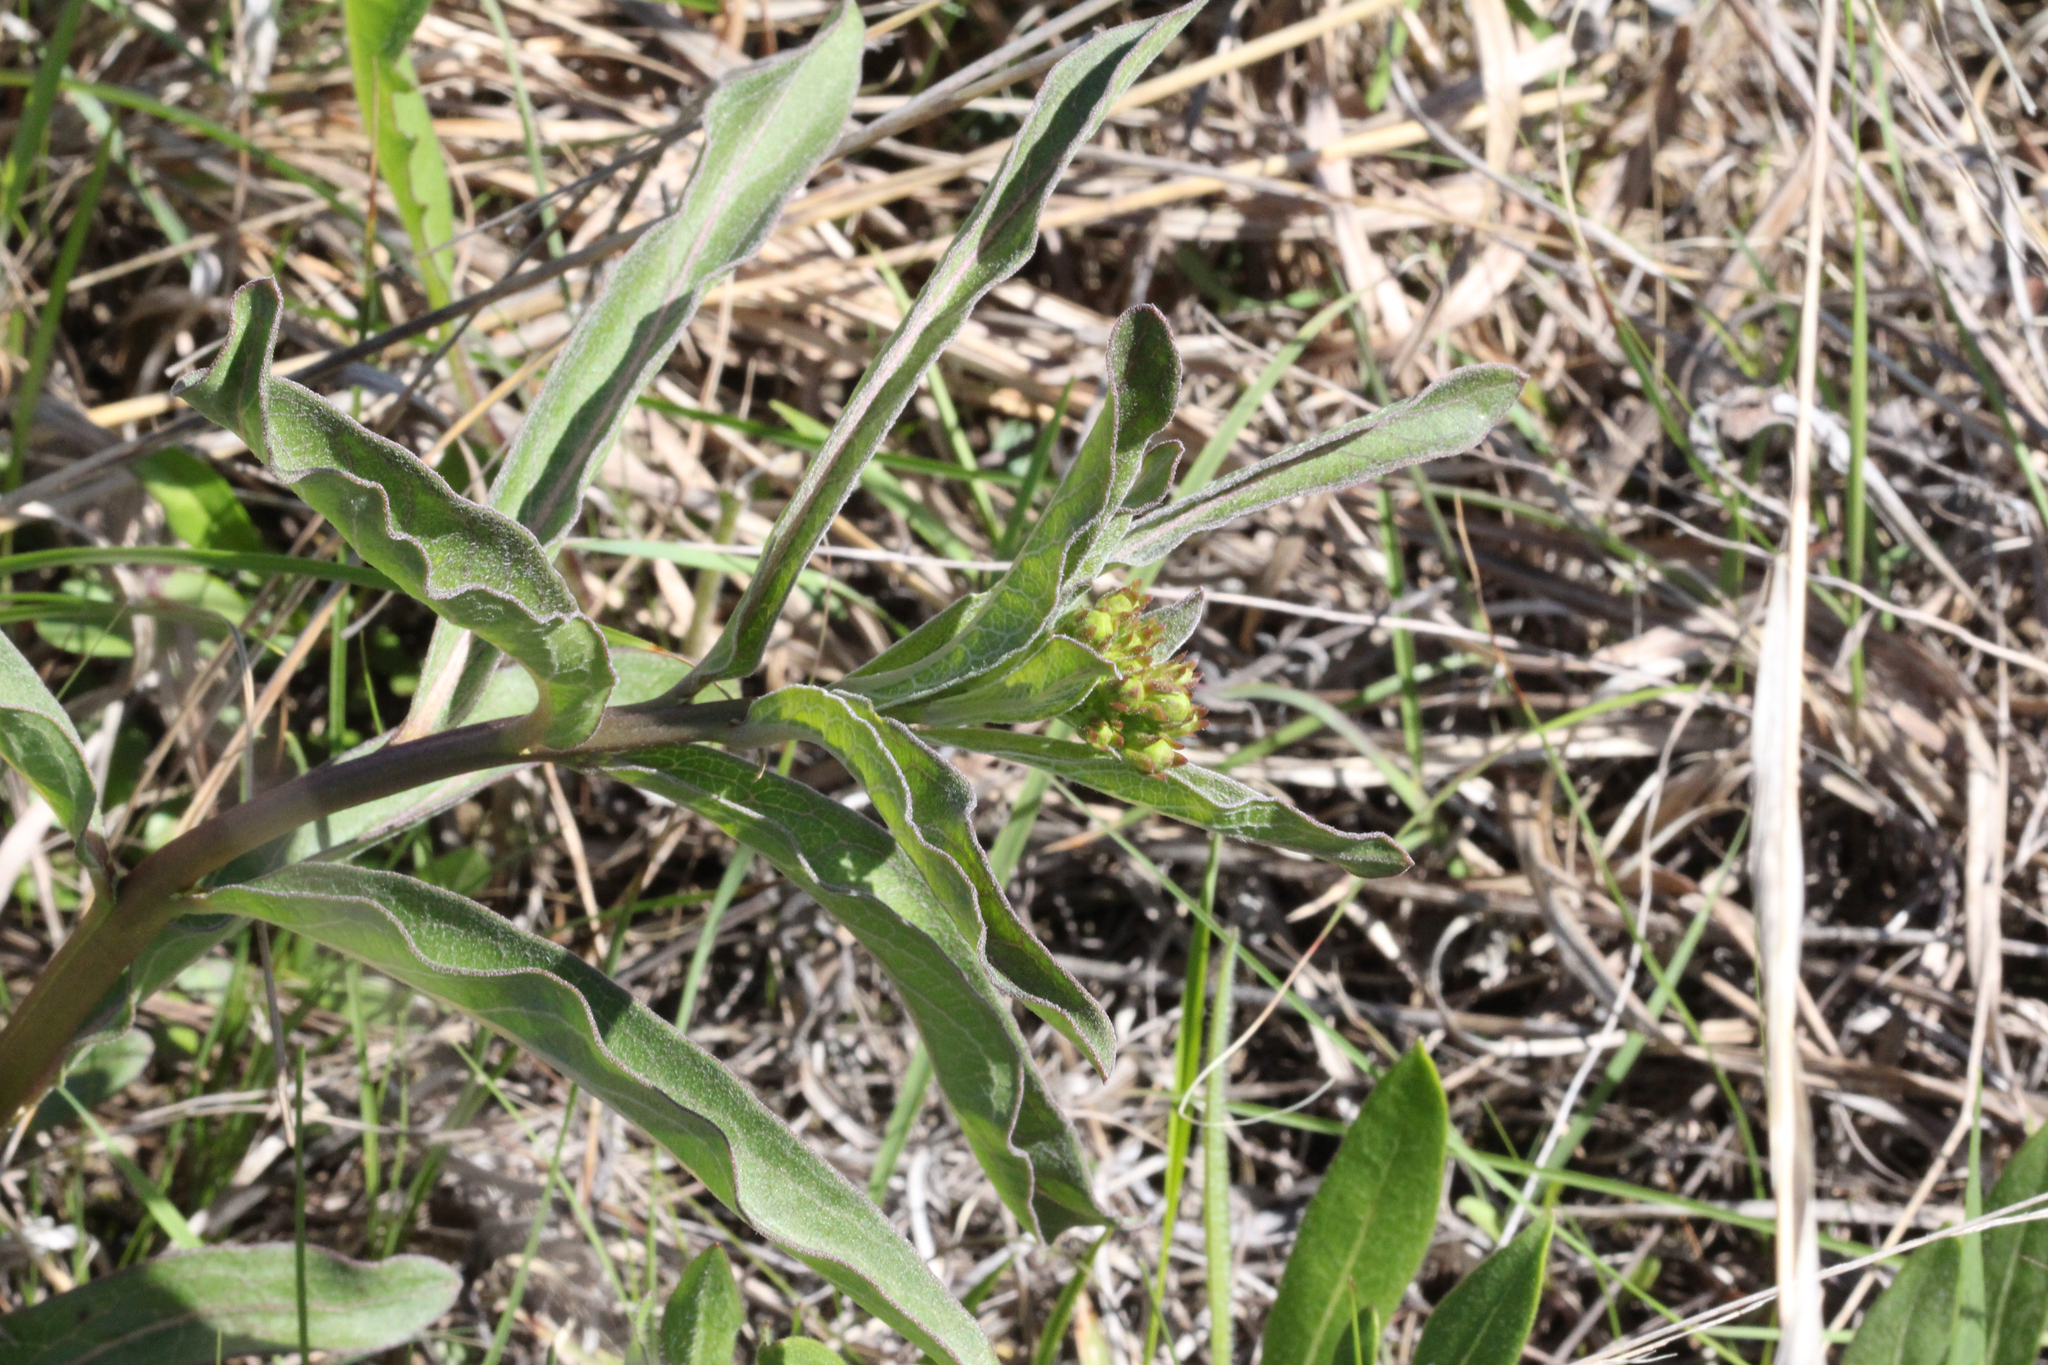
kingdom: Plantae
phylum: Tracheophyta
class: Magnoliopsida
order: Gentianales
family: Apocynaceae
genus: Asclepias
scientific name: Asclepias viridis
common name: Antelope-horns
